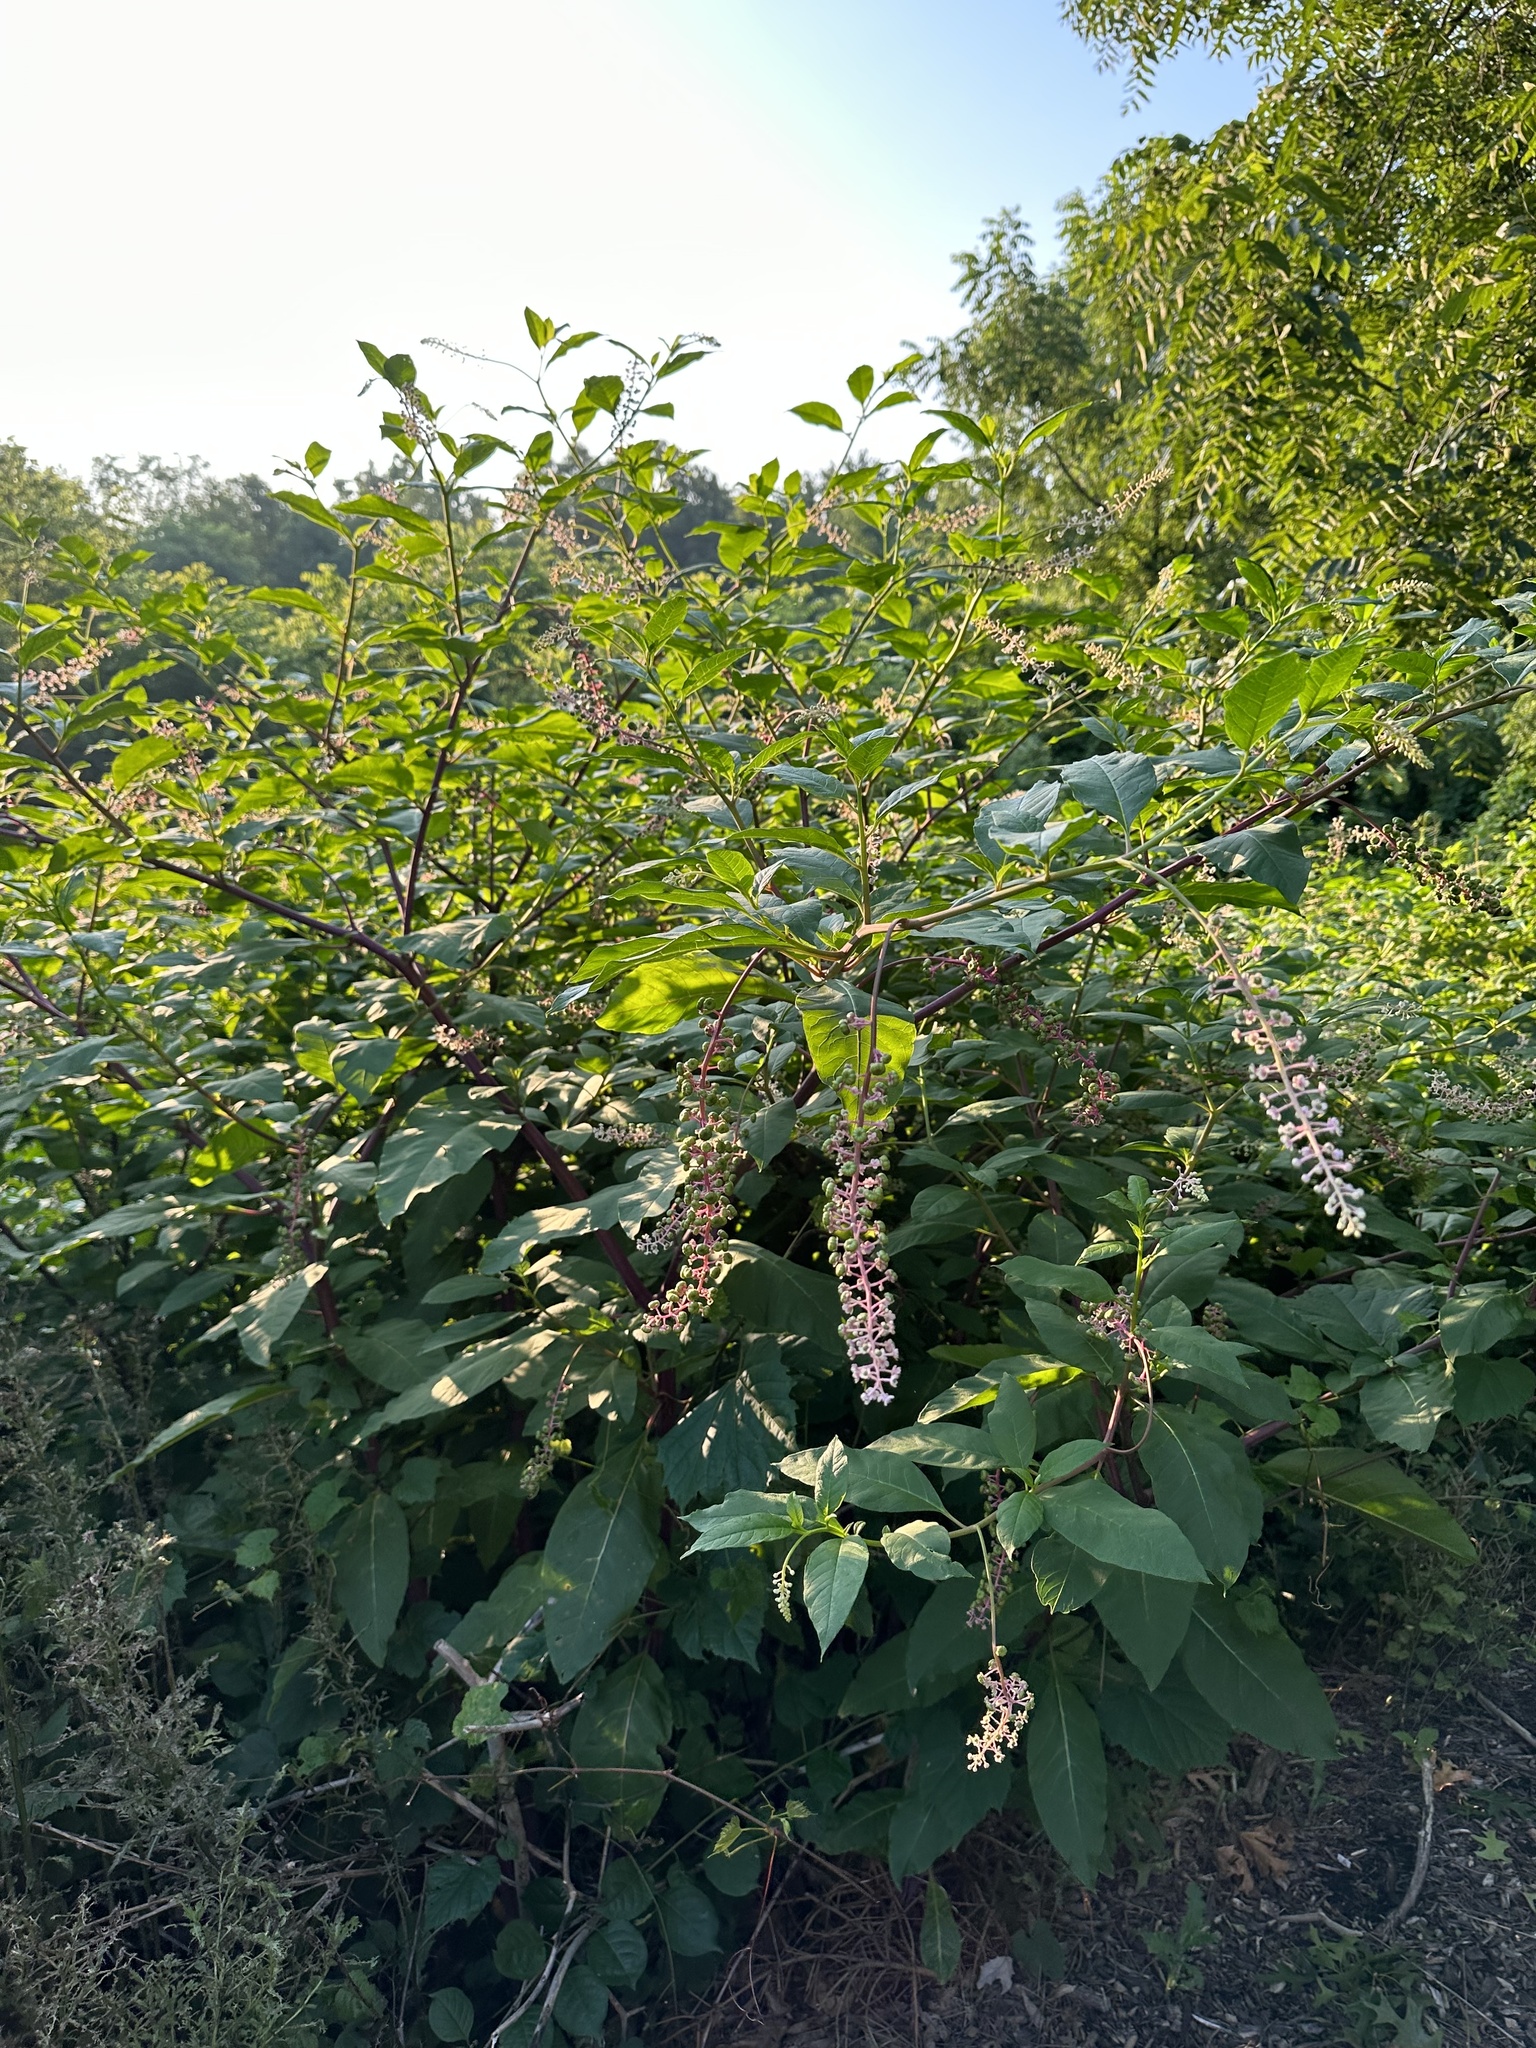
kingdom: Plantae
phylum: Tracheophyta
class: Magnoliopsida
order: Caryophyllales
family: Phytolaccaceae
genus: Phytolacca
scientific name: Phytolacca americana
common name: American pokeweed
